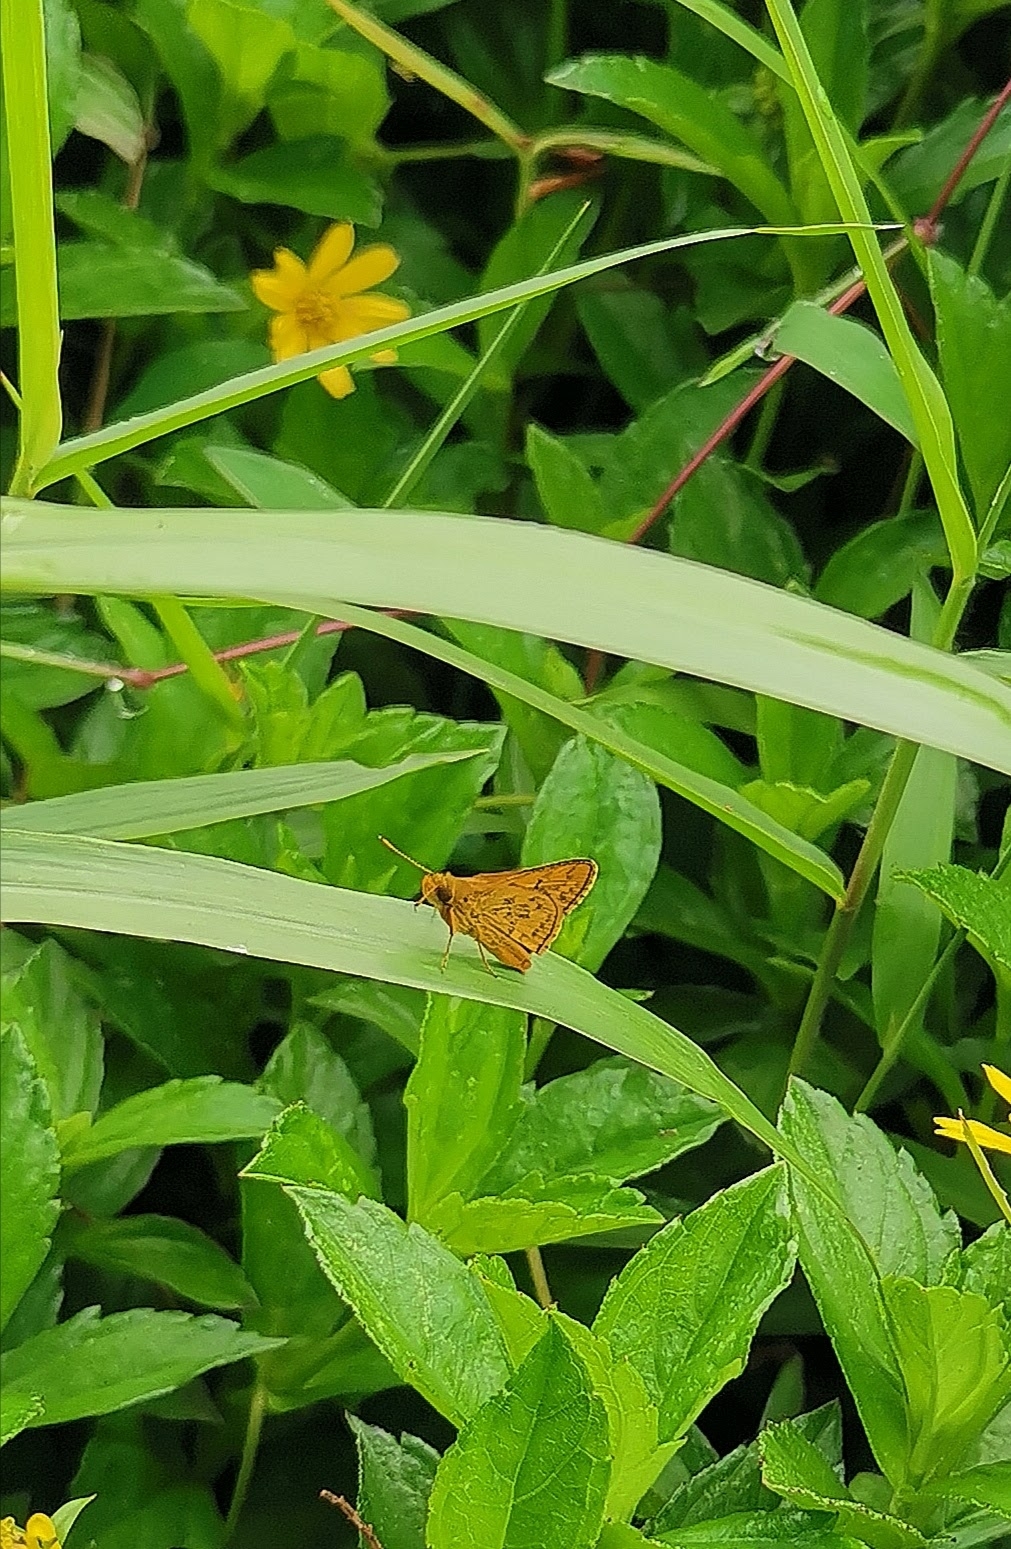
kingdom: Animalia
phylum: Arthropoda
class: Insecta
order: Lepidoptera
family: Hesperiidae
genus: Cephrenes
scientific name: Cephrenes trichopepla
